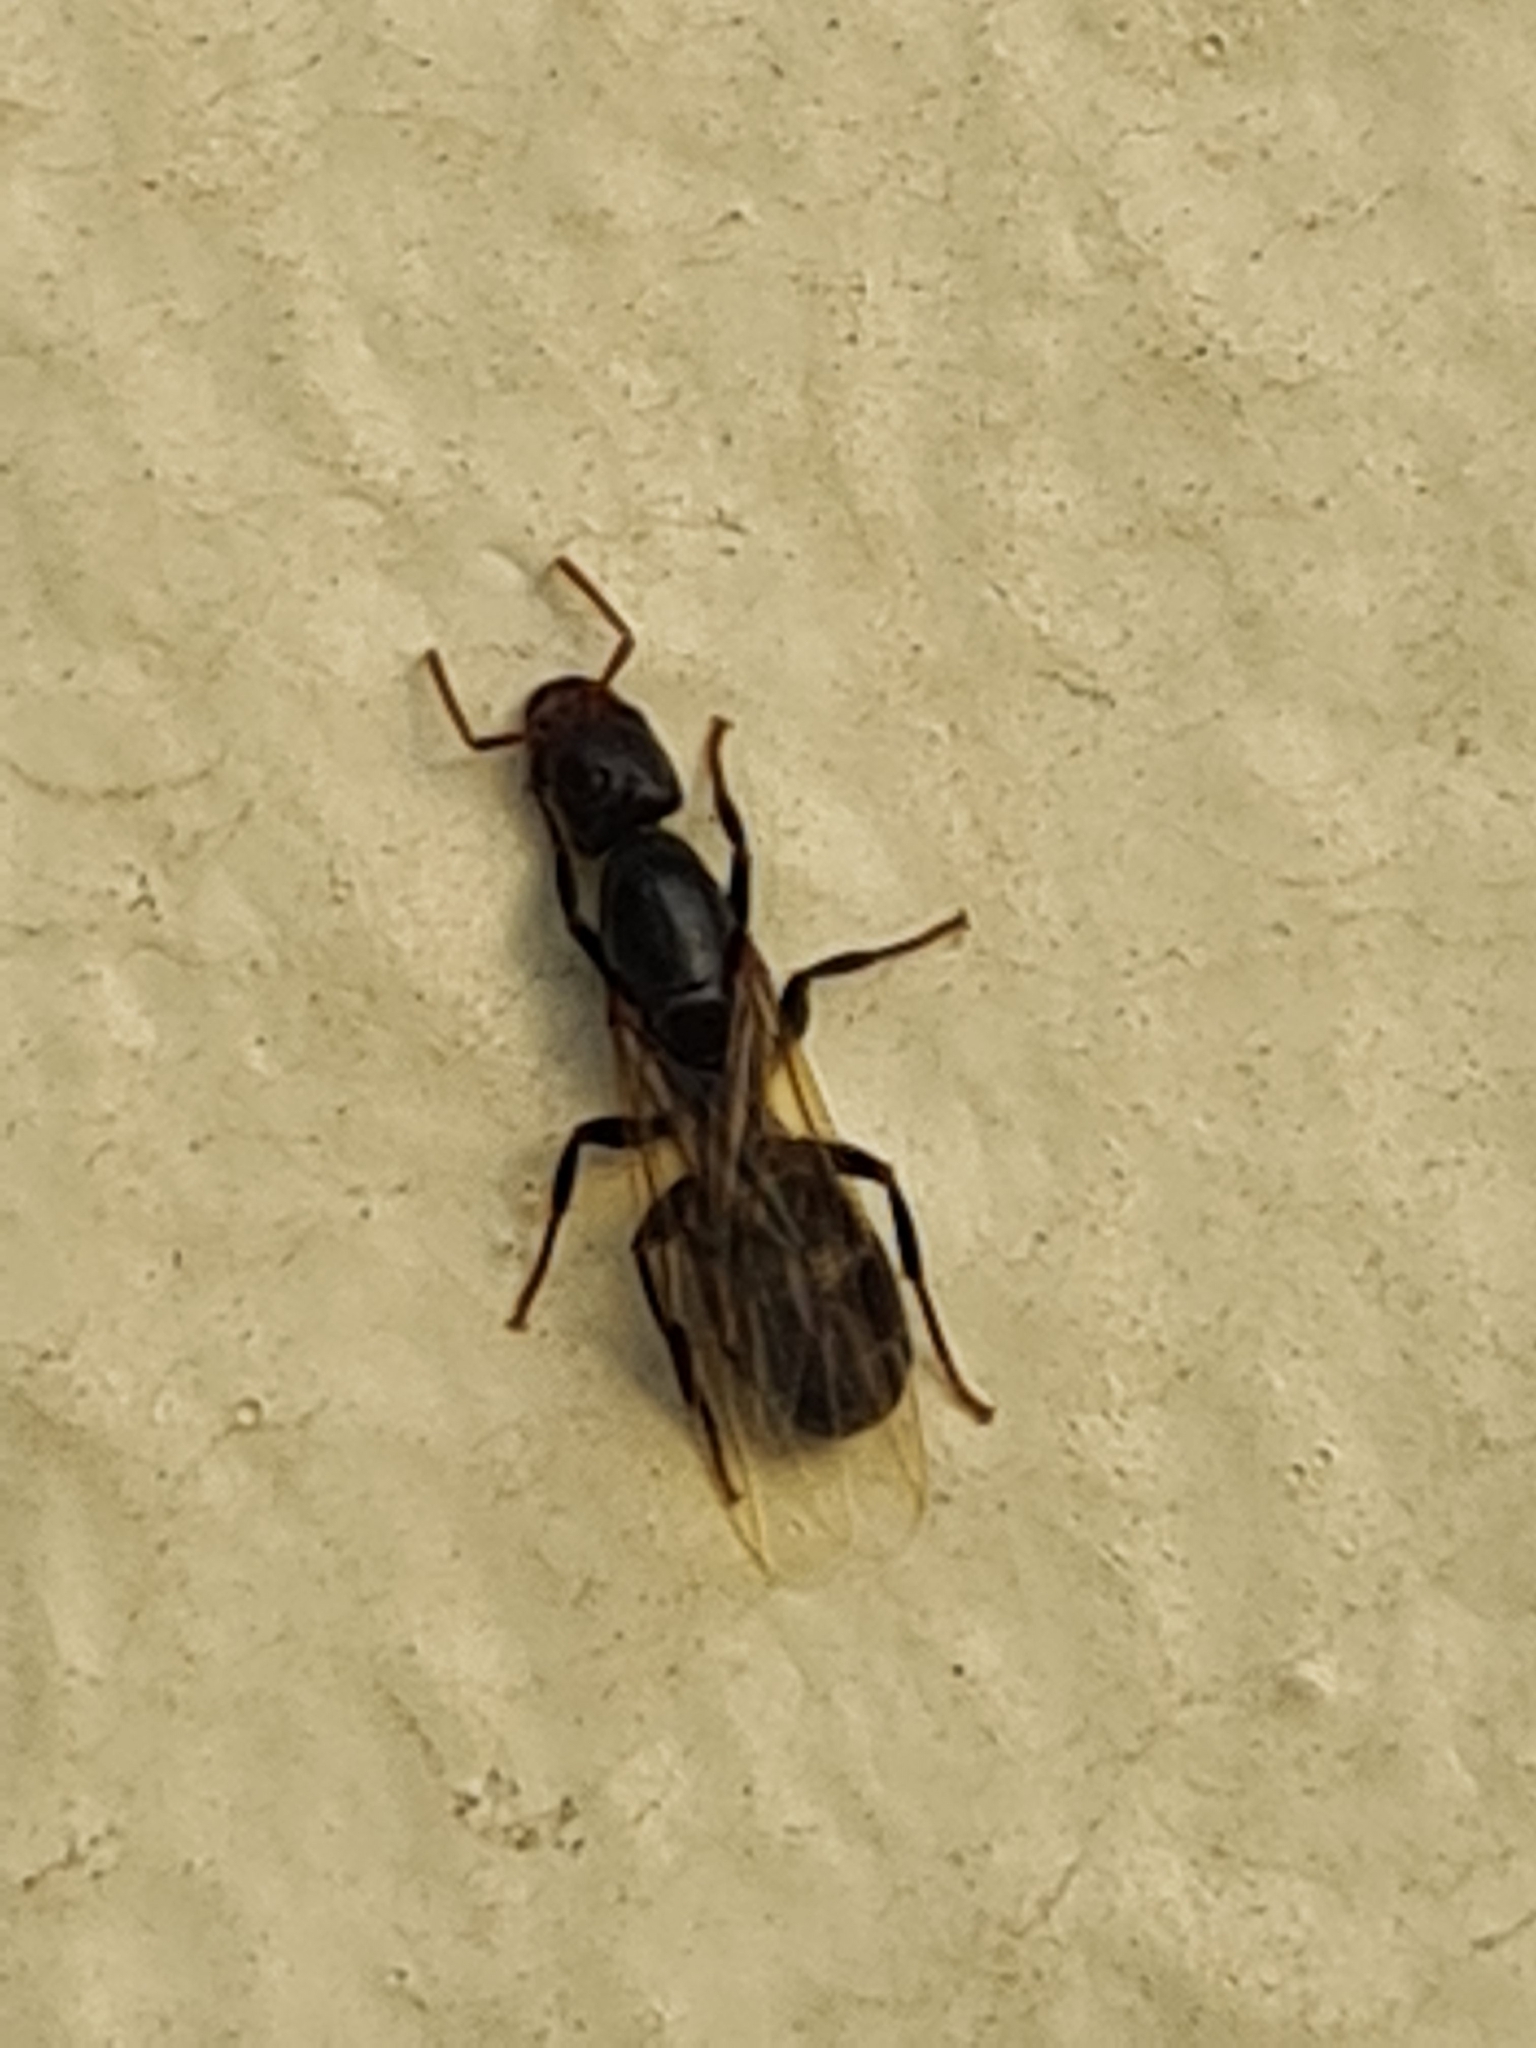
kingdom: Animalia
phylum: Arthropoda
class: Insecta
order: Hymenoptera
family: Formicidae
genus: Azteca
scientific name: Azteca
